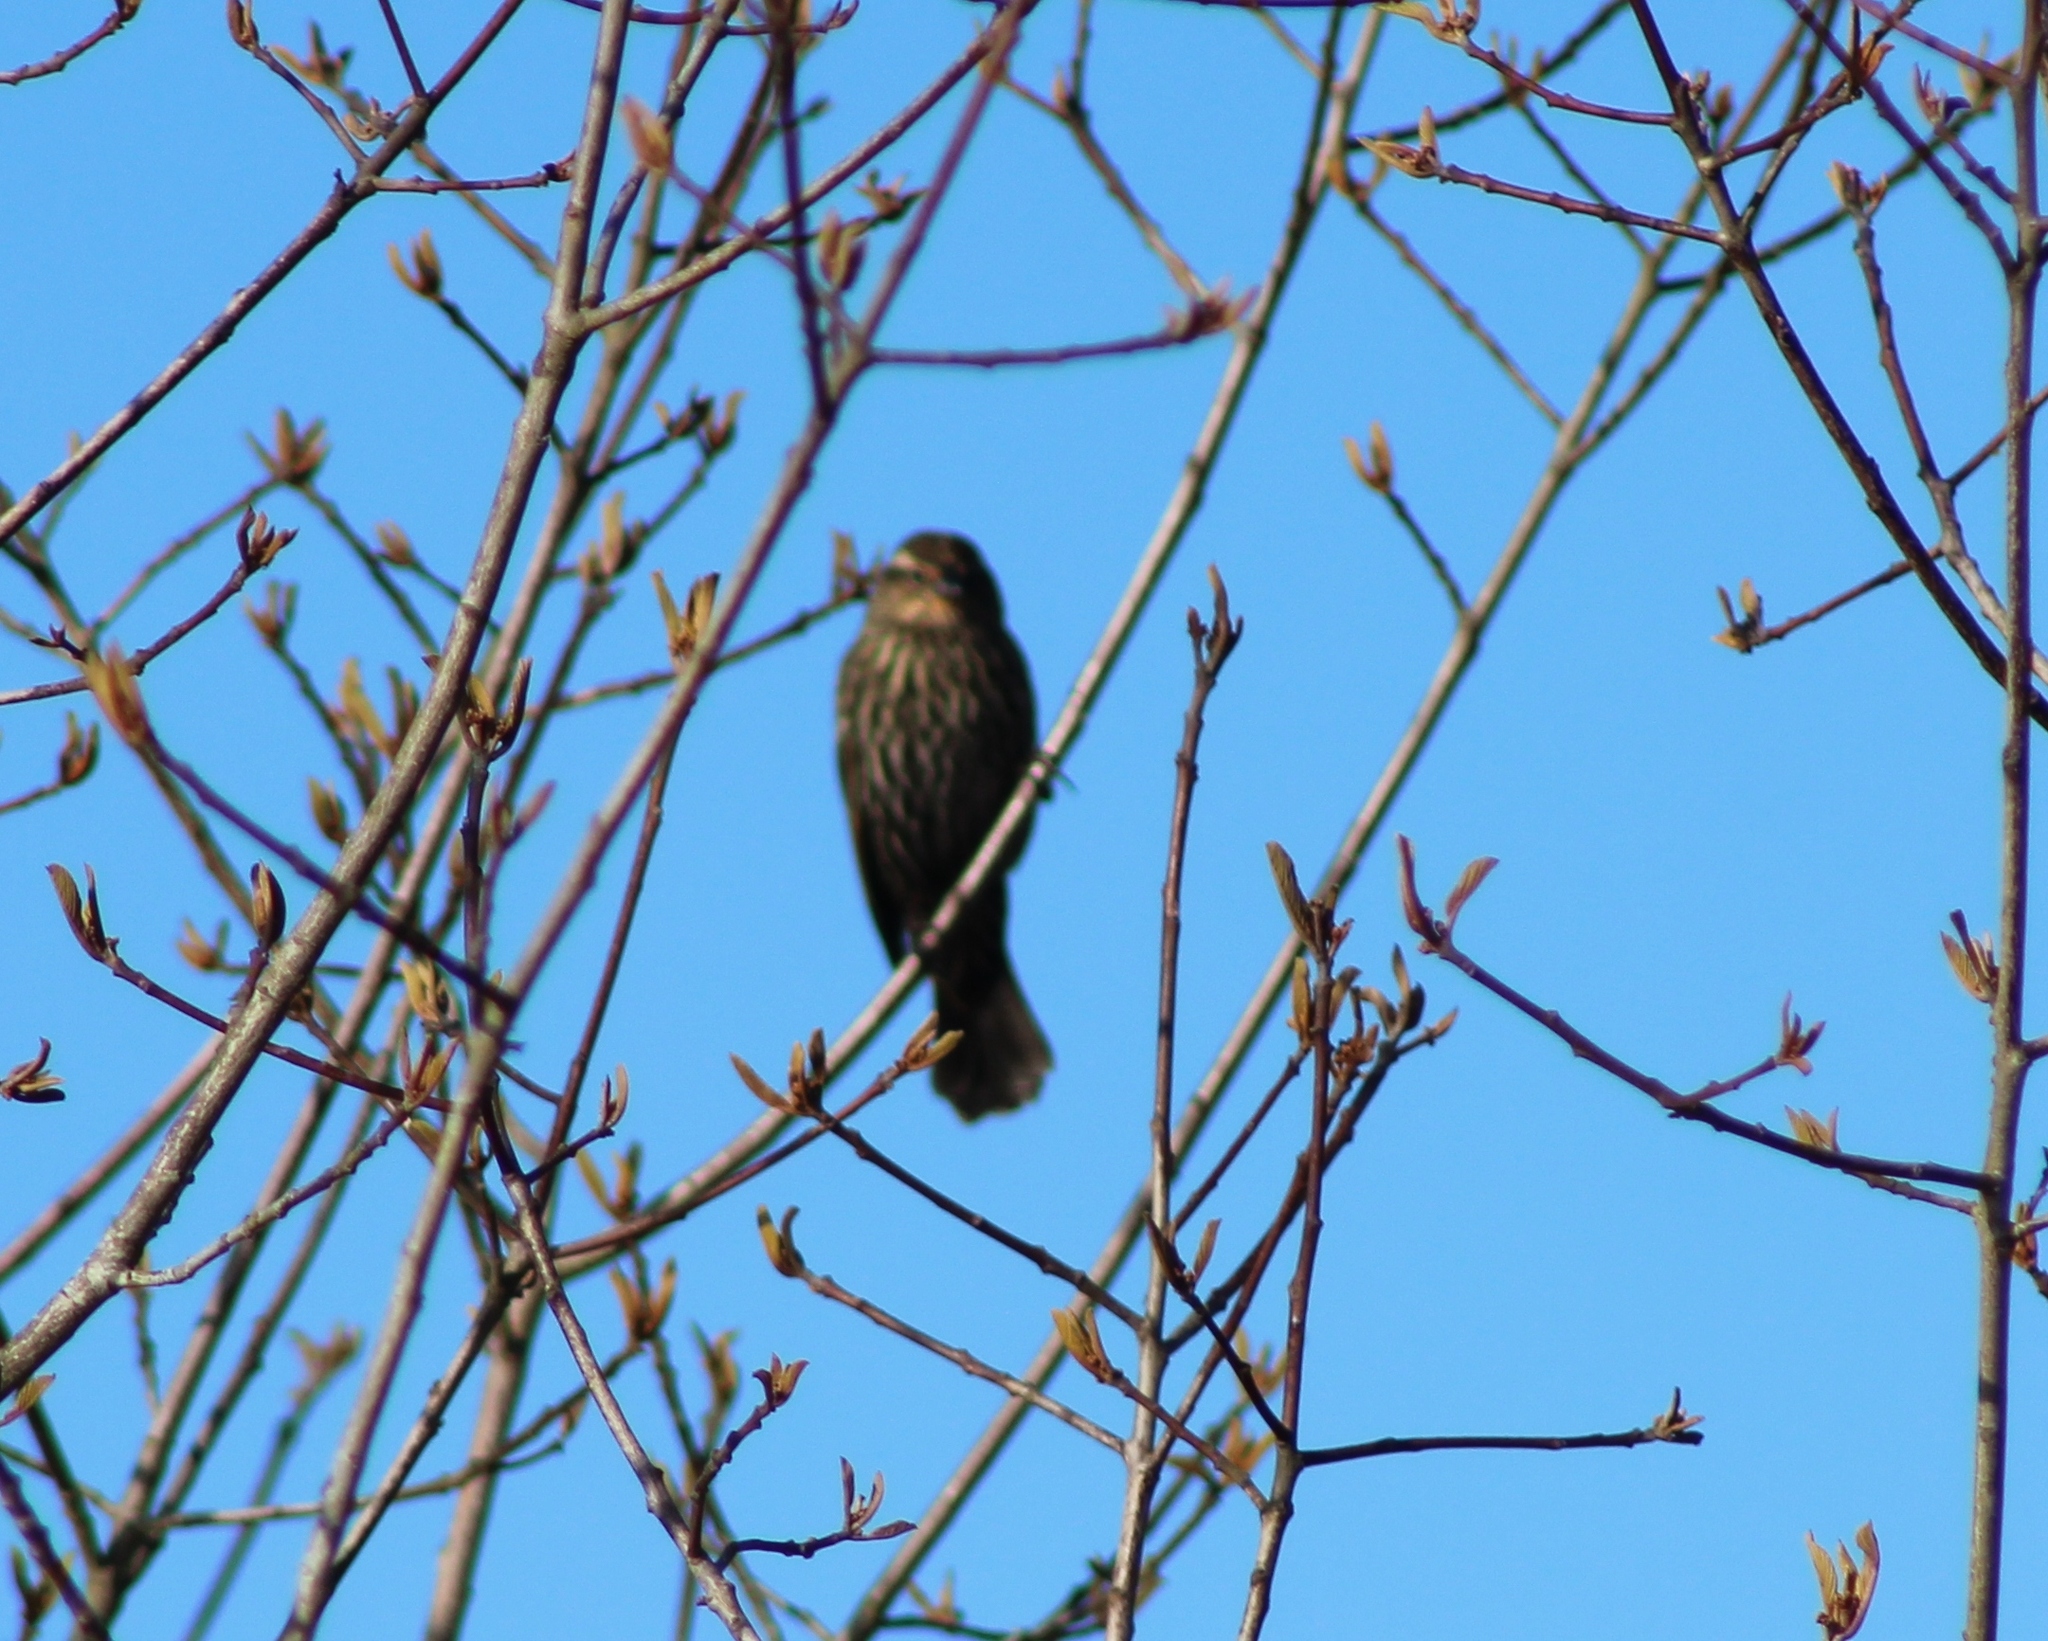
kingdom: Animalia
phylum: Chordata
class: Aves
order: Passeriformes
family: Icteridae
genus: Agelaius
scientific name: Agelaius phoeniceus
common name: Red-winged blackbird
